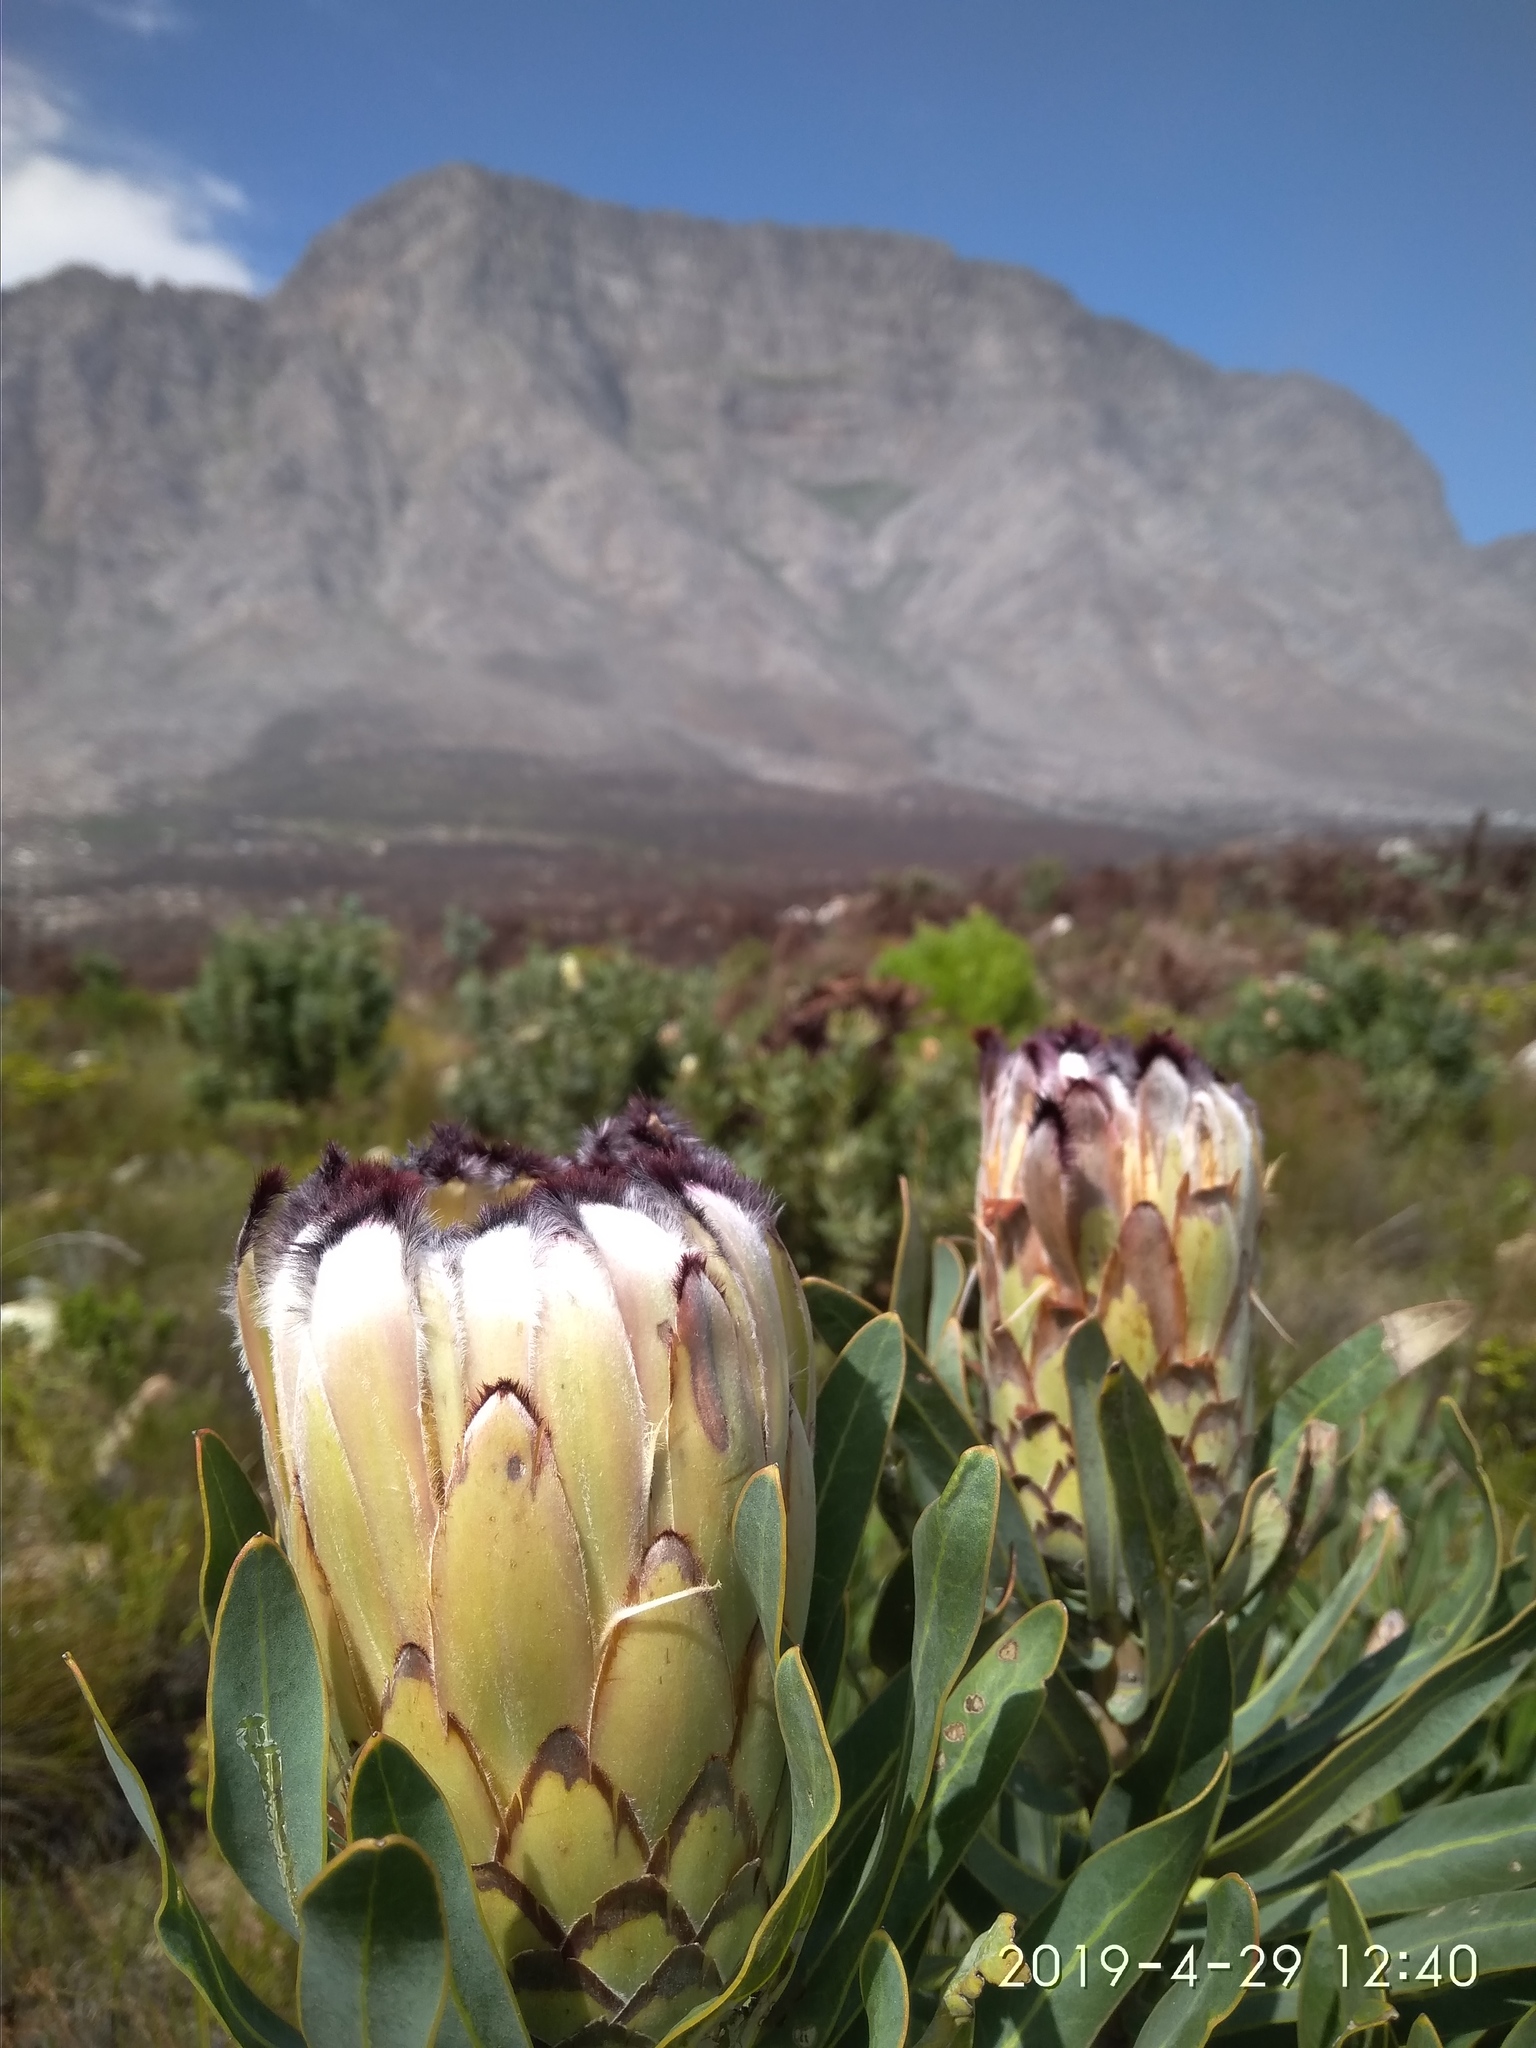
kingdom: Plantae
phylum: Tracheophyta
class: Magnoliopsida
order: Proteales
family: Proteaceae
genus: Protea
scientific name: Protea neriifolia
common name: Blue sugarbush
